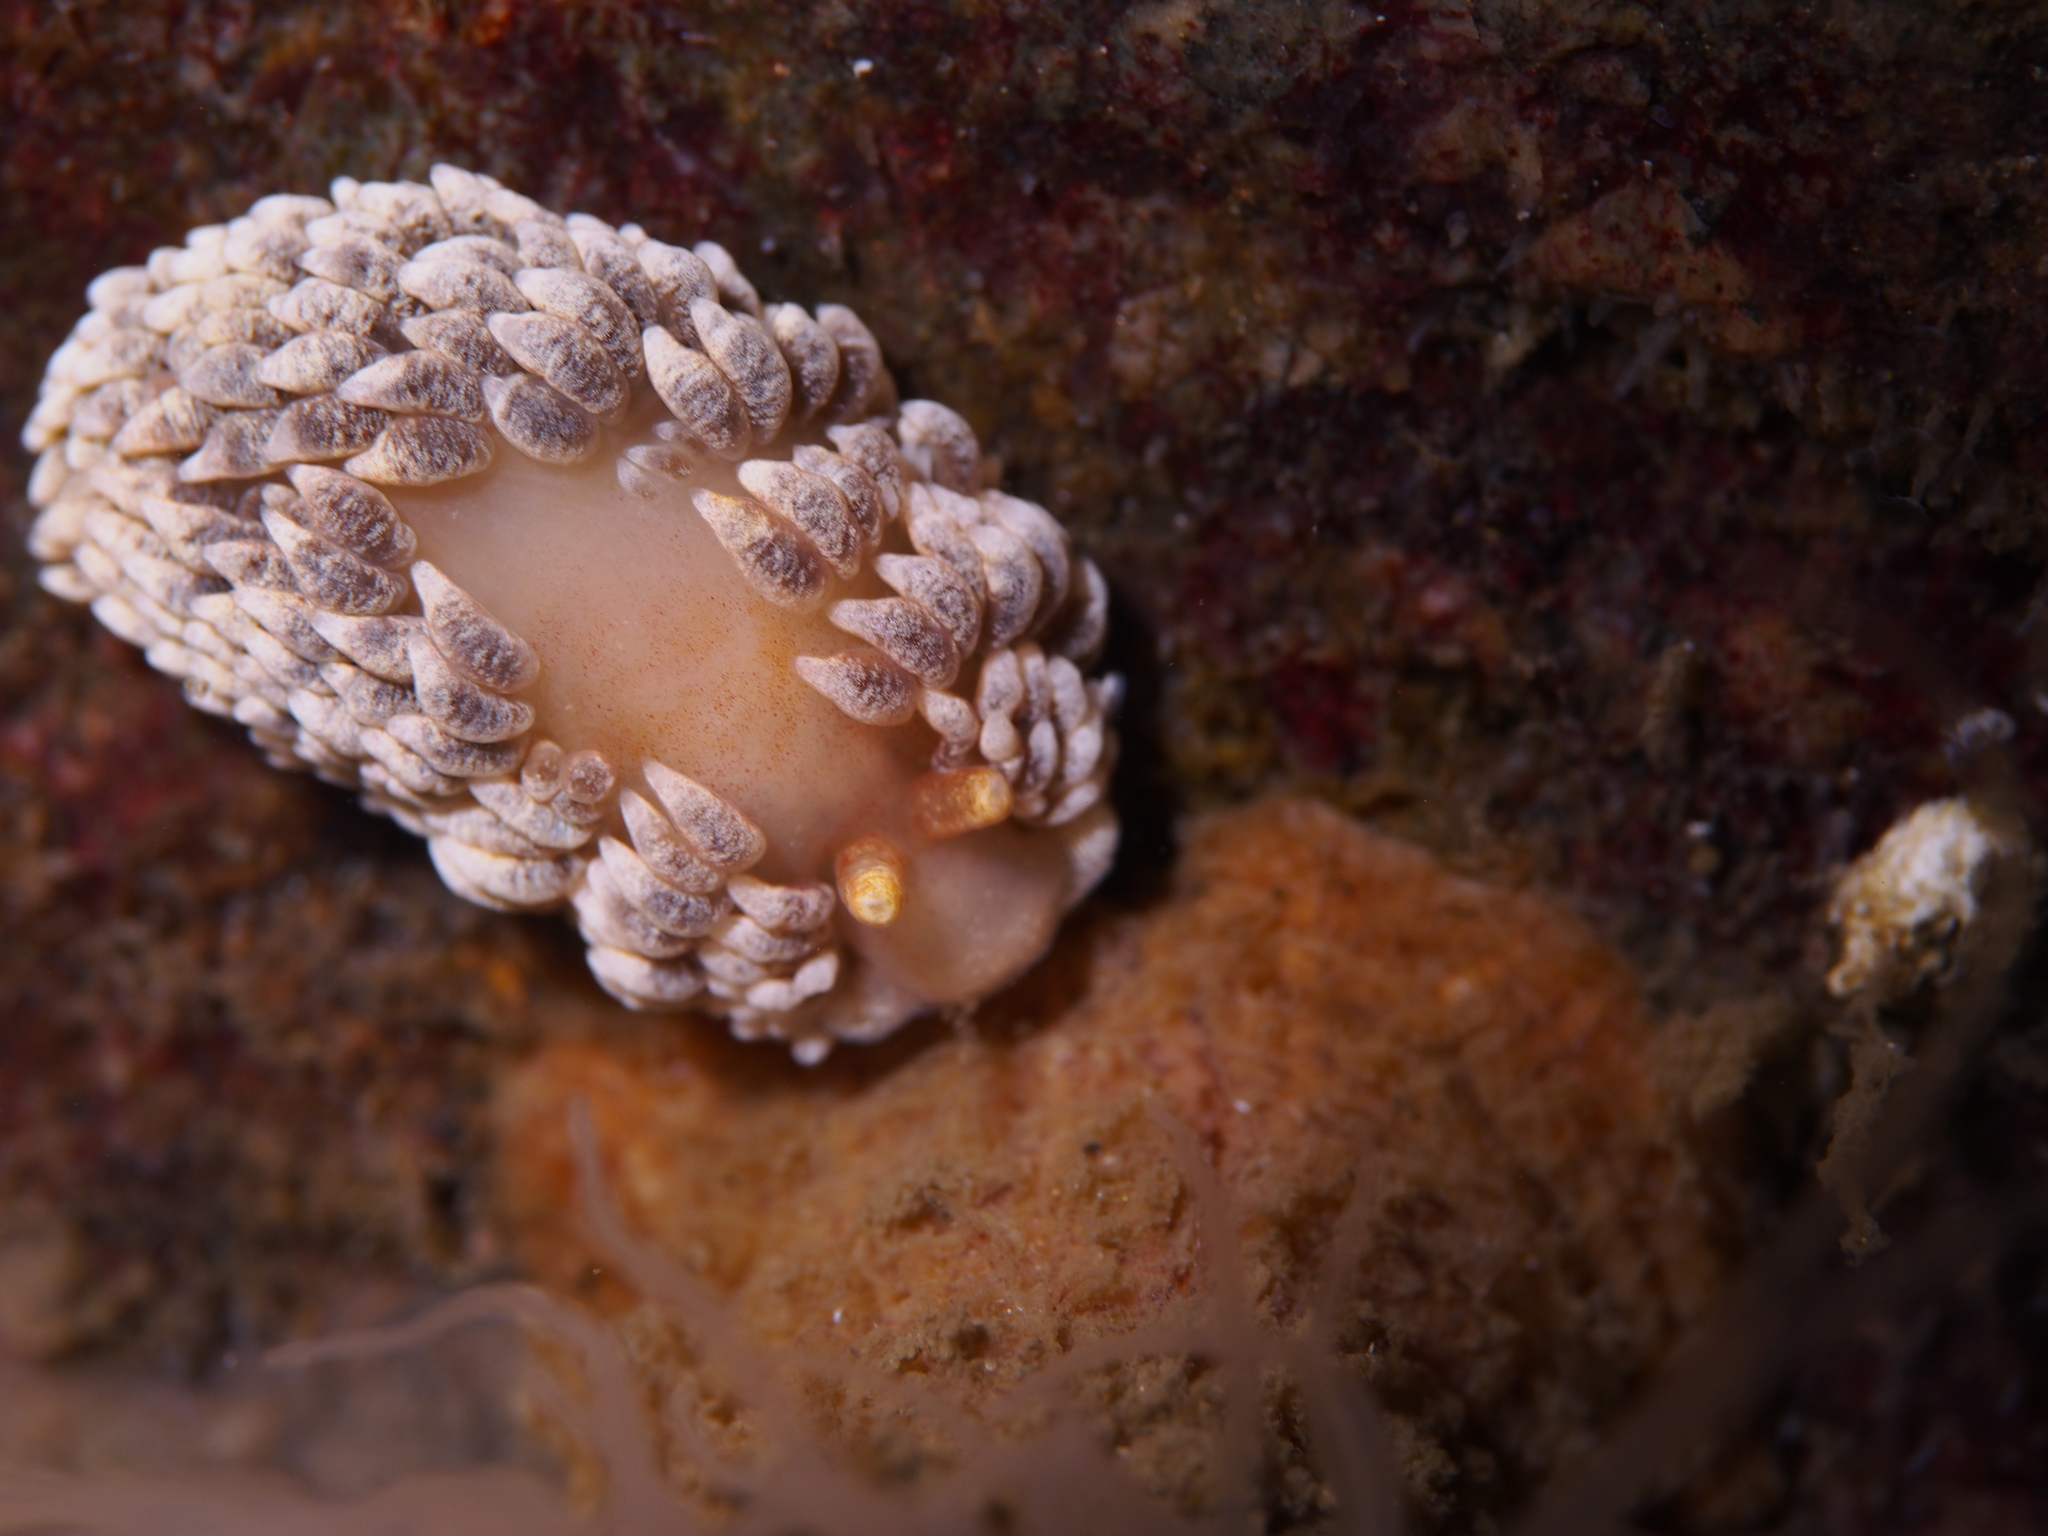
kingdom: Animalia
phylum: Mollusca
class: Gastropoda
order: Nudibranchia
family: Aeolidiidae
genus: Aeolidiella
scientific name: Aeolidiella glauca
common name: Orange-brown aeolid
